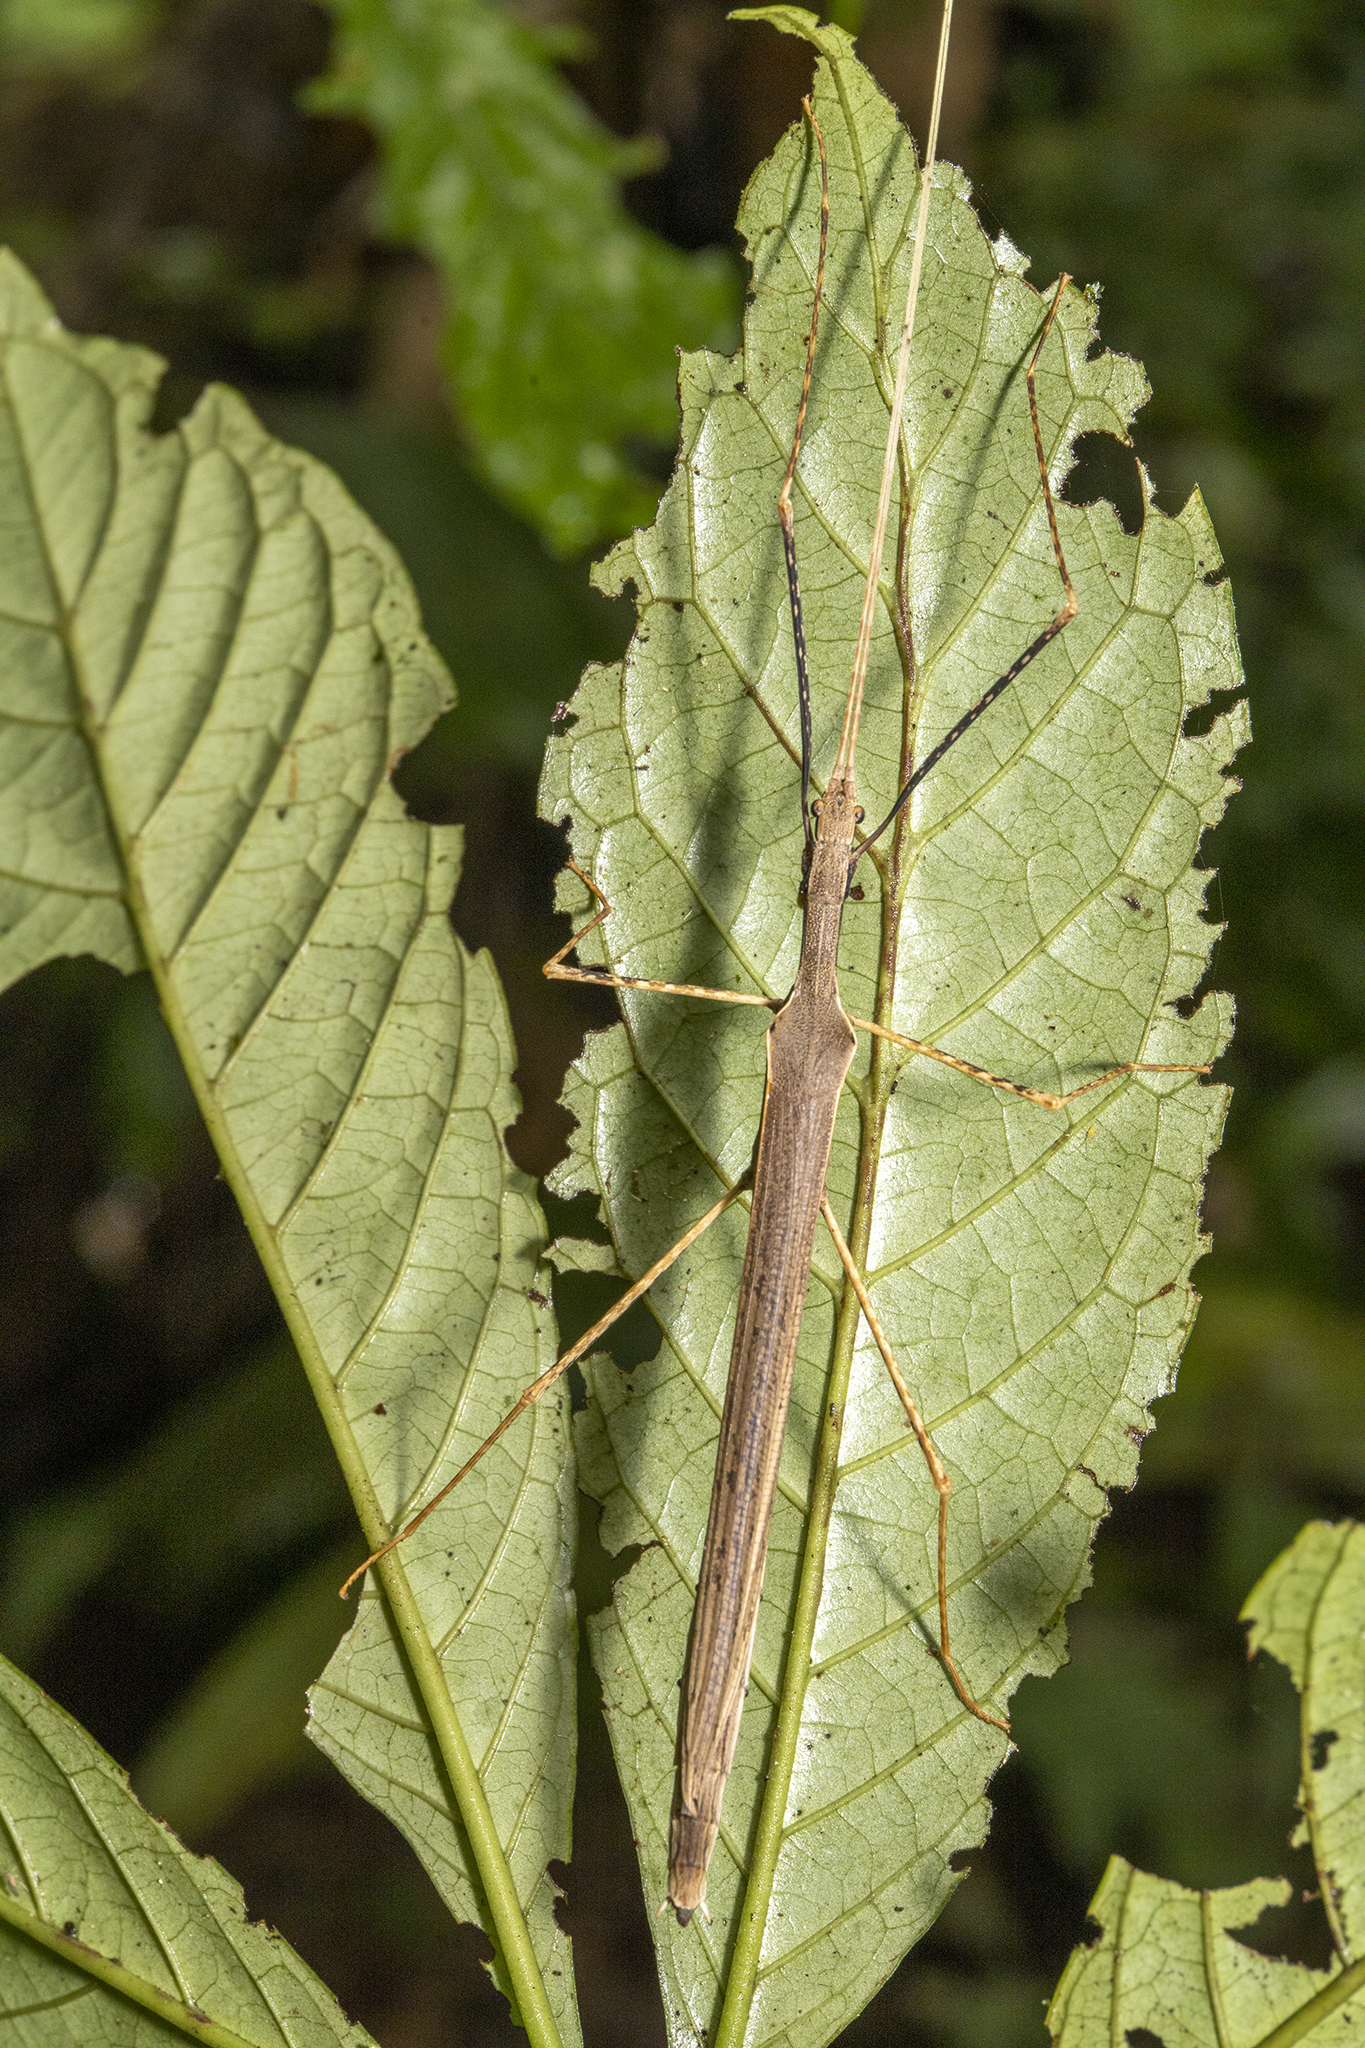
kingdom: Animalia
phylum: Arthropoda
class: Insecta
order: Phasmida
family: Pseudophasmatidae
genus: Pseudophasma
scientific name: Pseudophasma gracile
